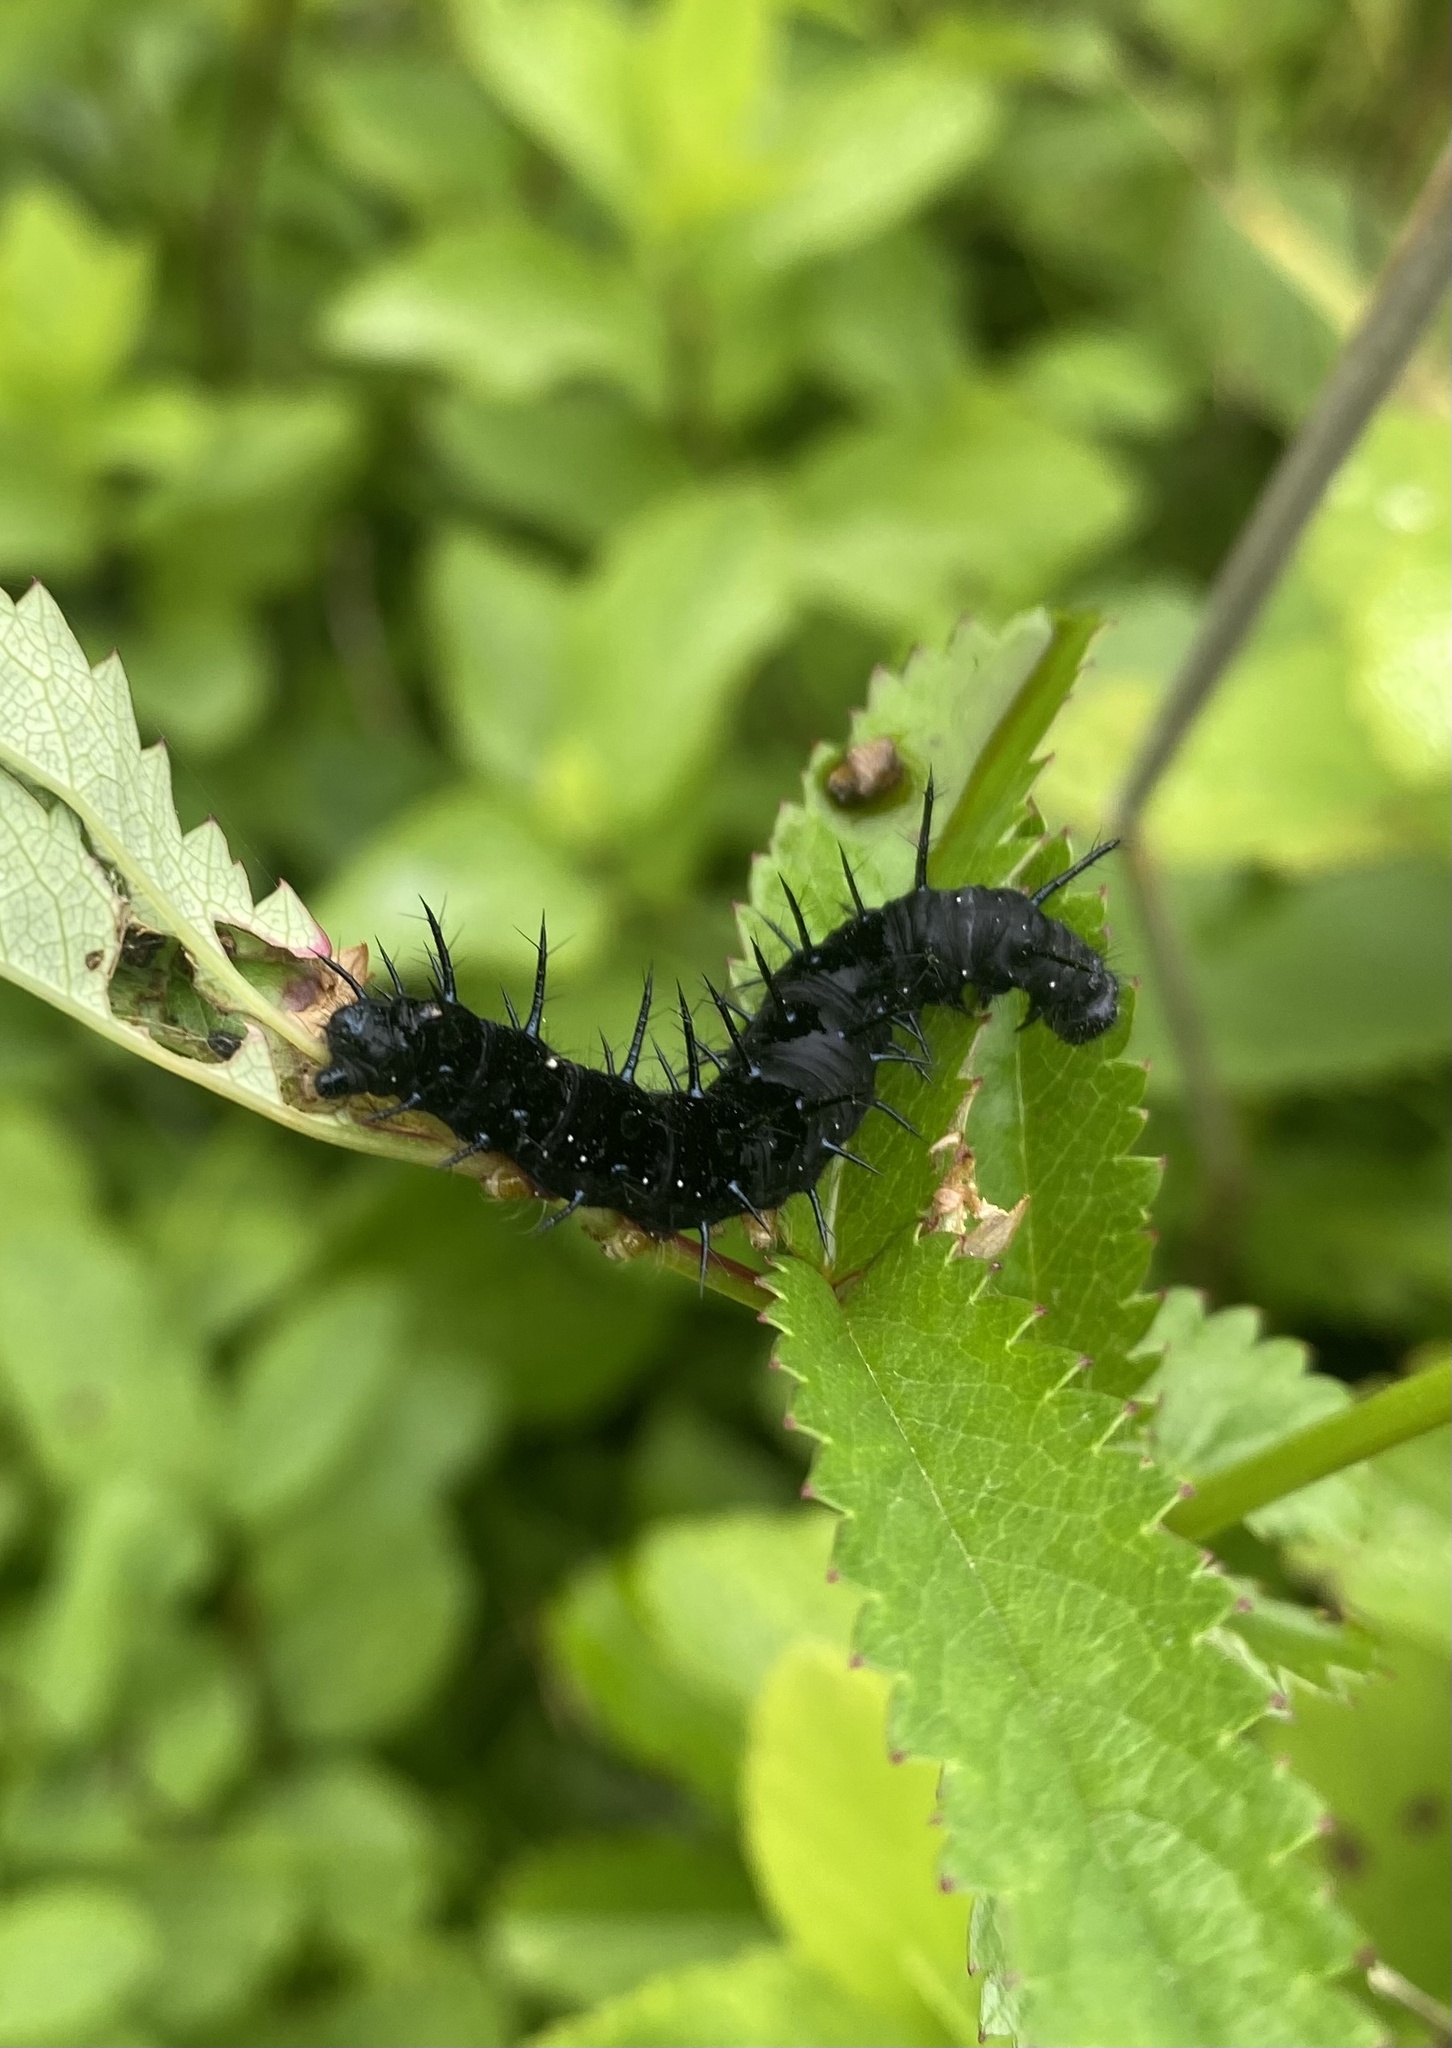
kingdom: Animalia
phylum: Arthropoda
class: Insecta
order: Lepidoptera
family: Nymphalidae
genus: Aglais
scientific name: Aglais io
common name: Peacock
